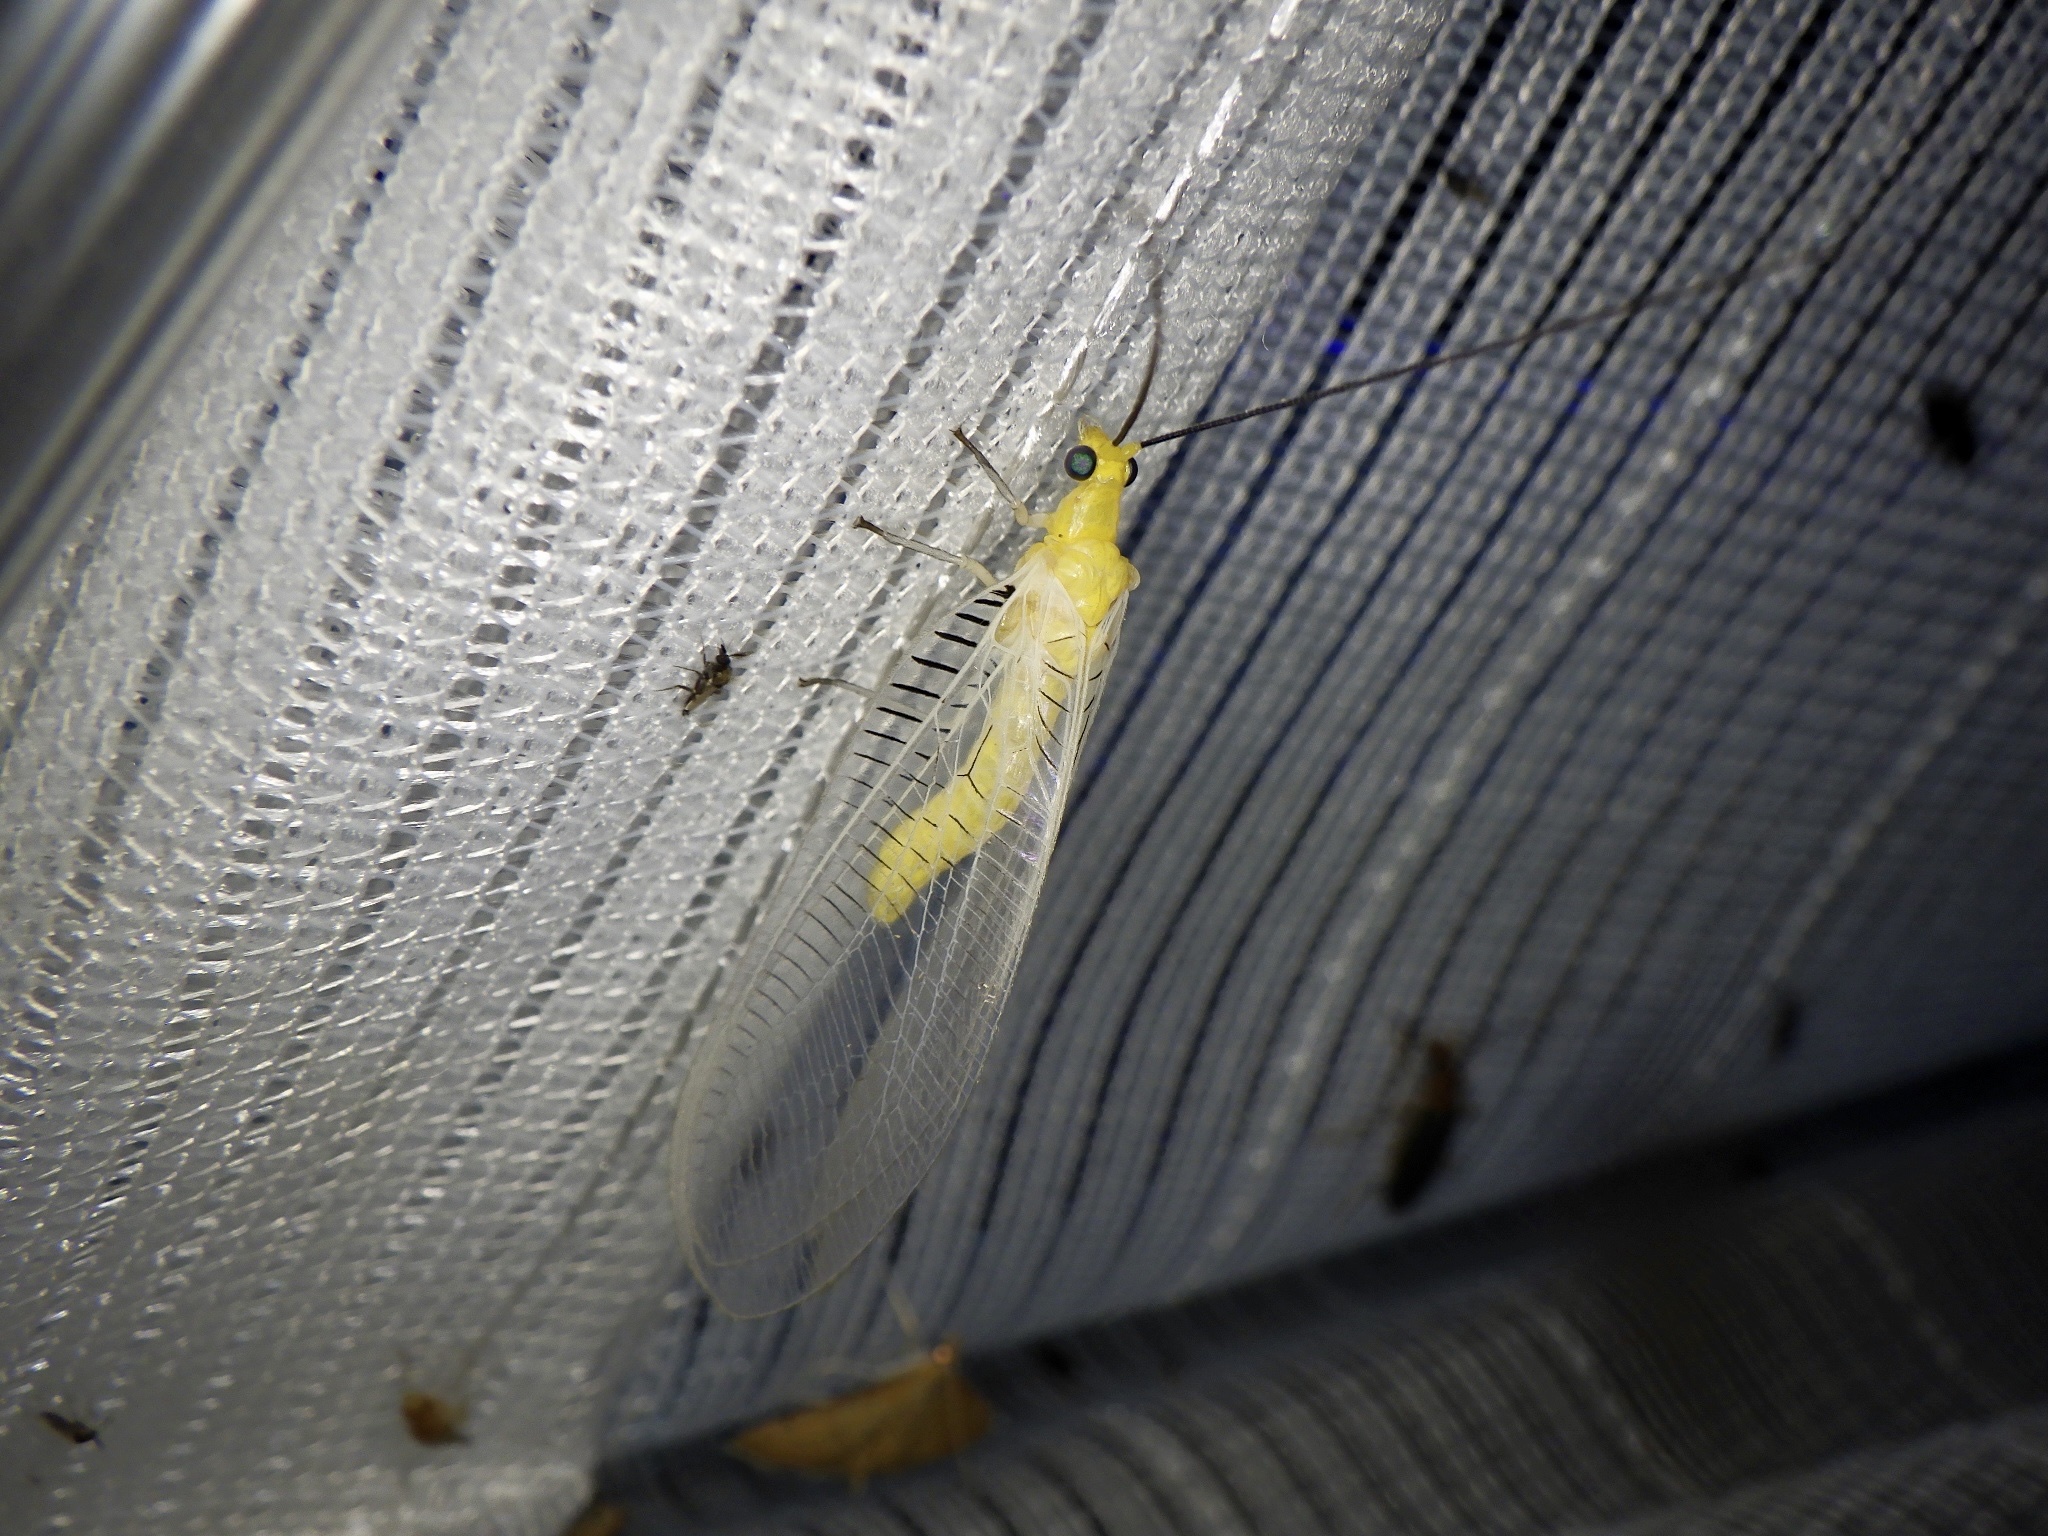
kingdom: Animalia
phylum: Arthropoda
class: Insecta
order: Neuroptera
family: Chrysopidae
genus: Italochrysa
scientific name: Italochrysa nigrovenosa
